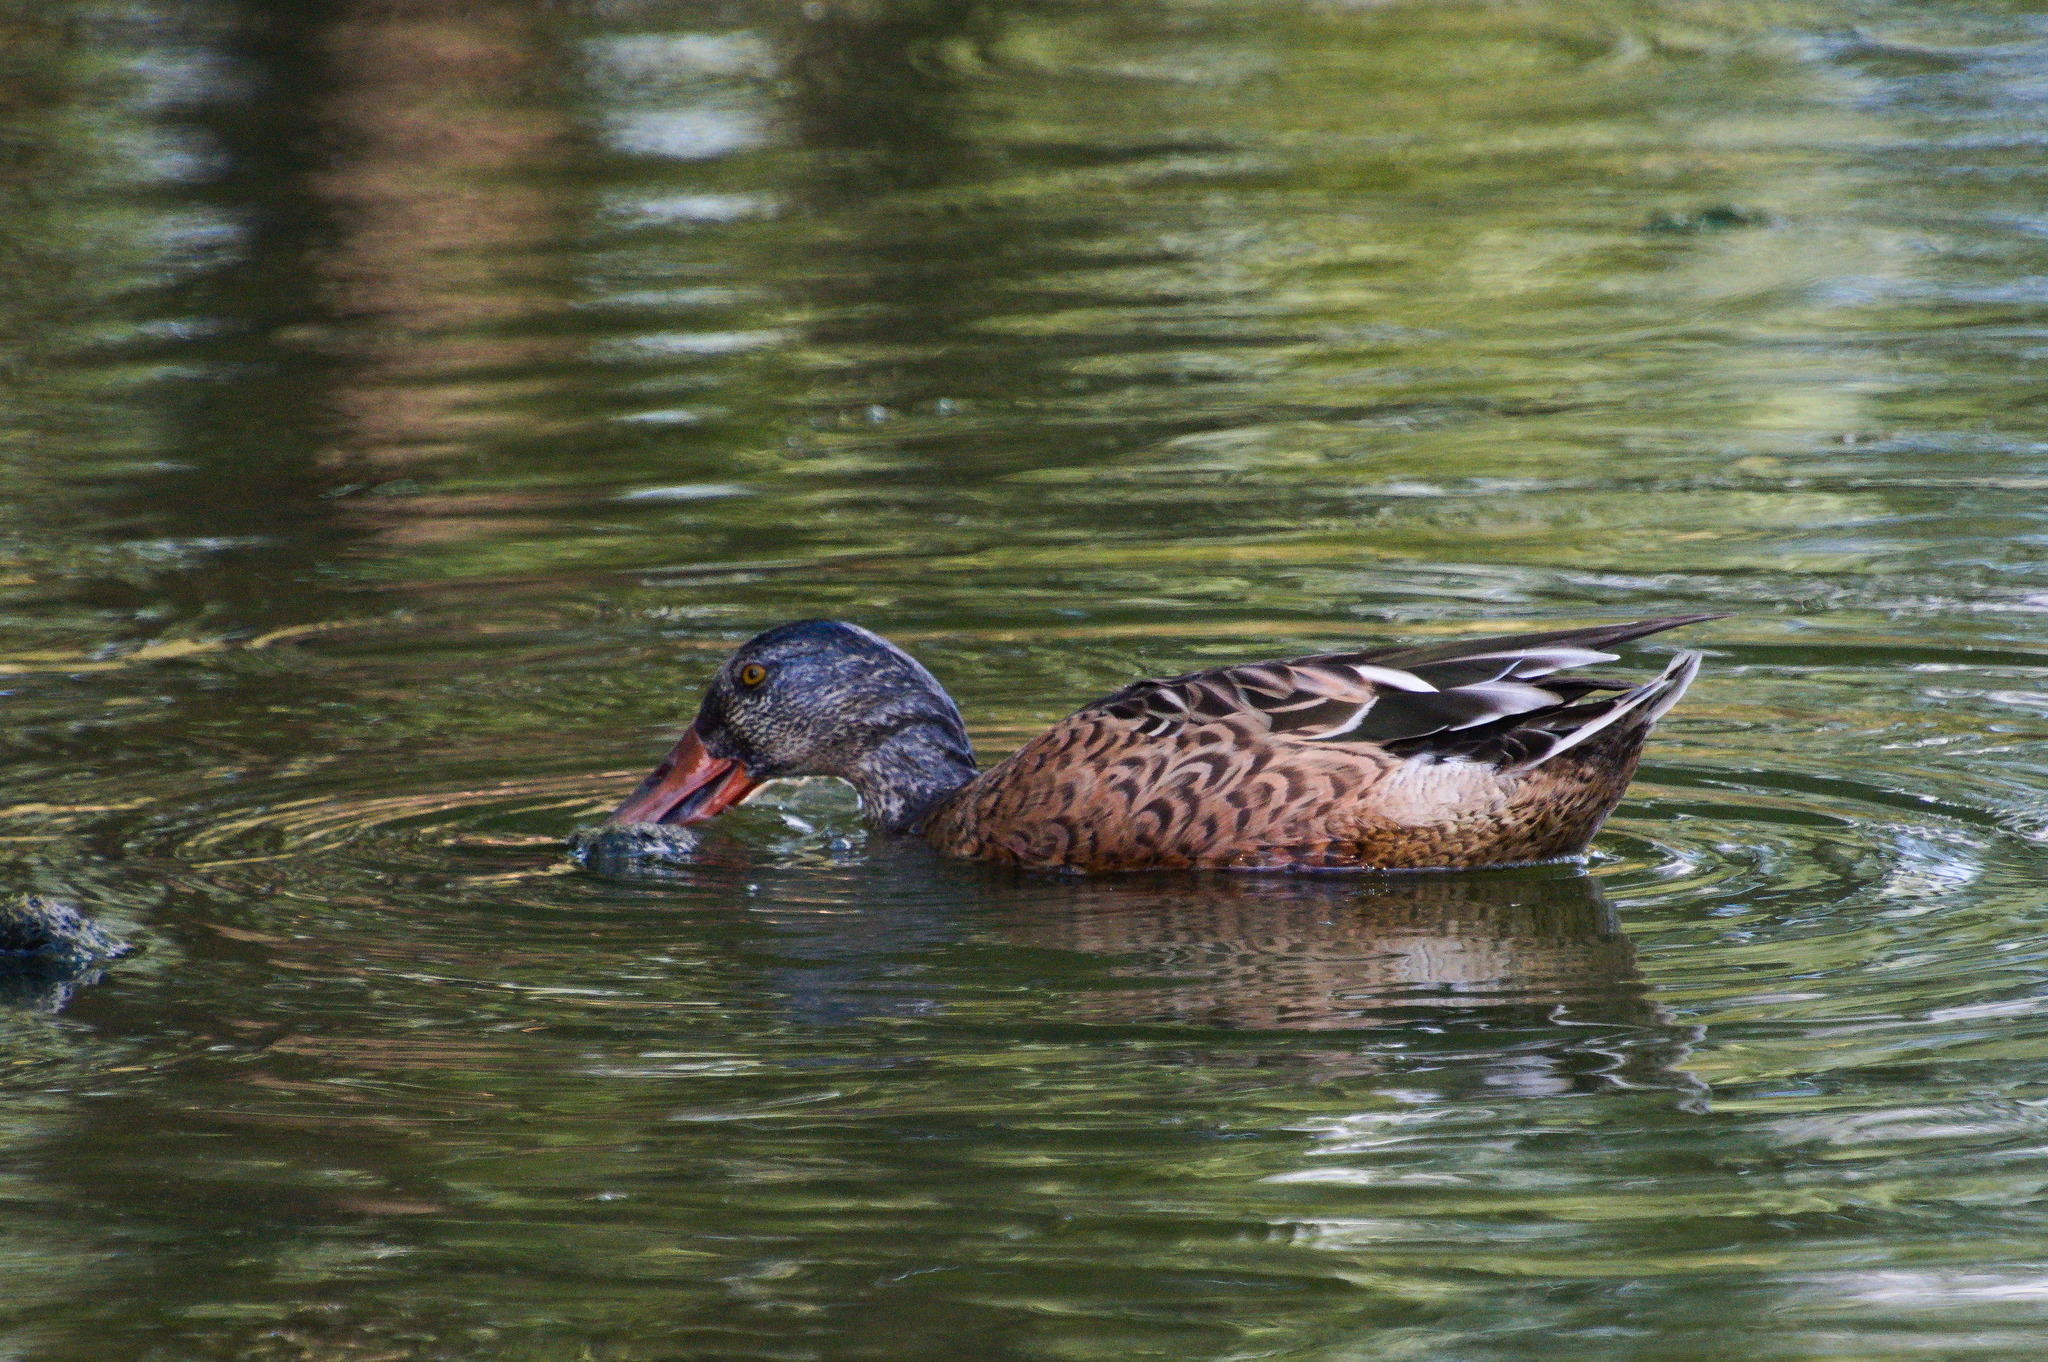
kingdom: Animalia
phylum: Chordata
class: Aves
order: Anseriformes
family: Anatidae
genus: Spatula
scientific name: Spatula clypeata
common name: Northern shoveler
